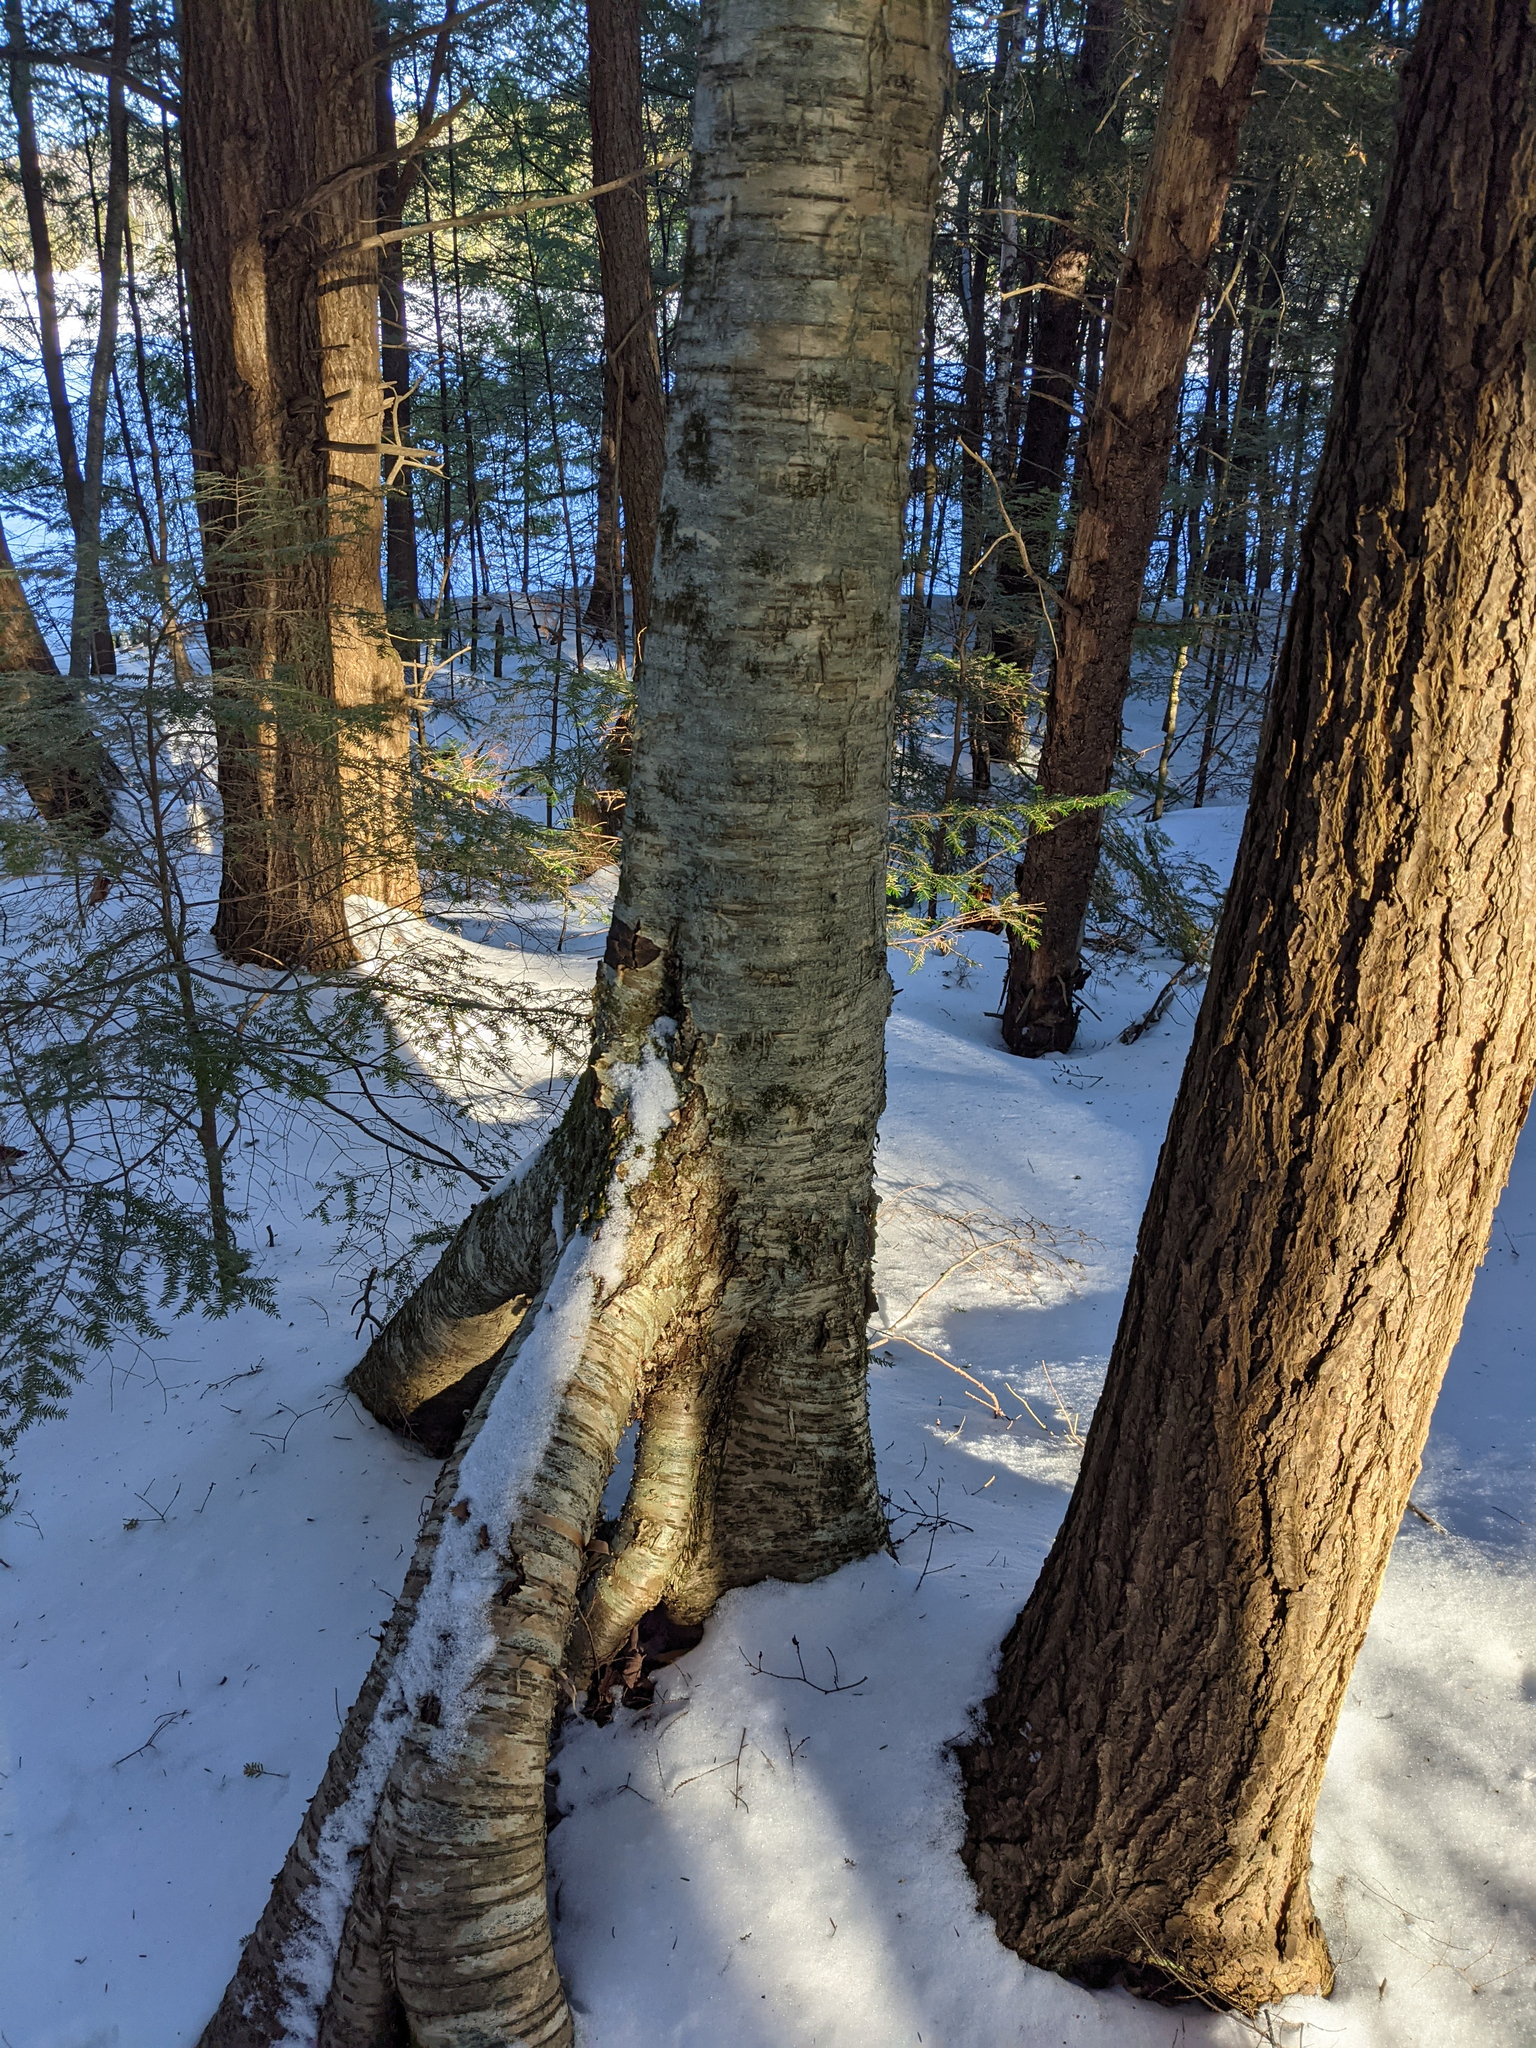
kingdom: Plantae
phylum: Tracheophyta
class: Magnoliopsida
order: Fagales
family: Betulaceae
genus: Betula
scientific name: Betula alleghaniensis
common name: Yellow birch
